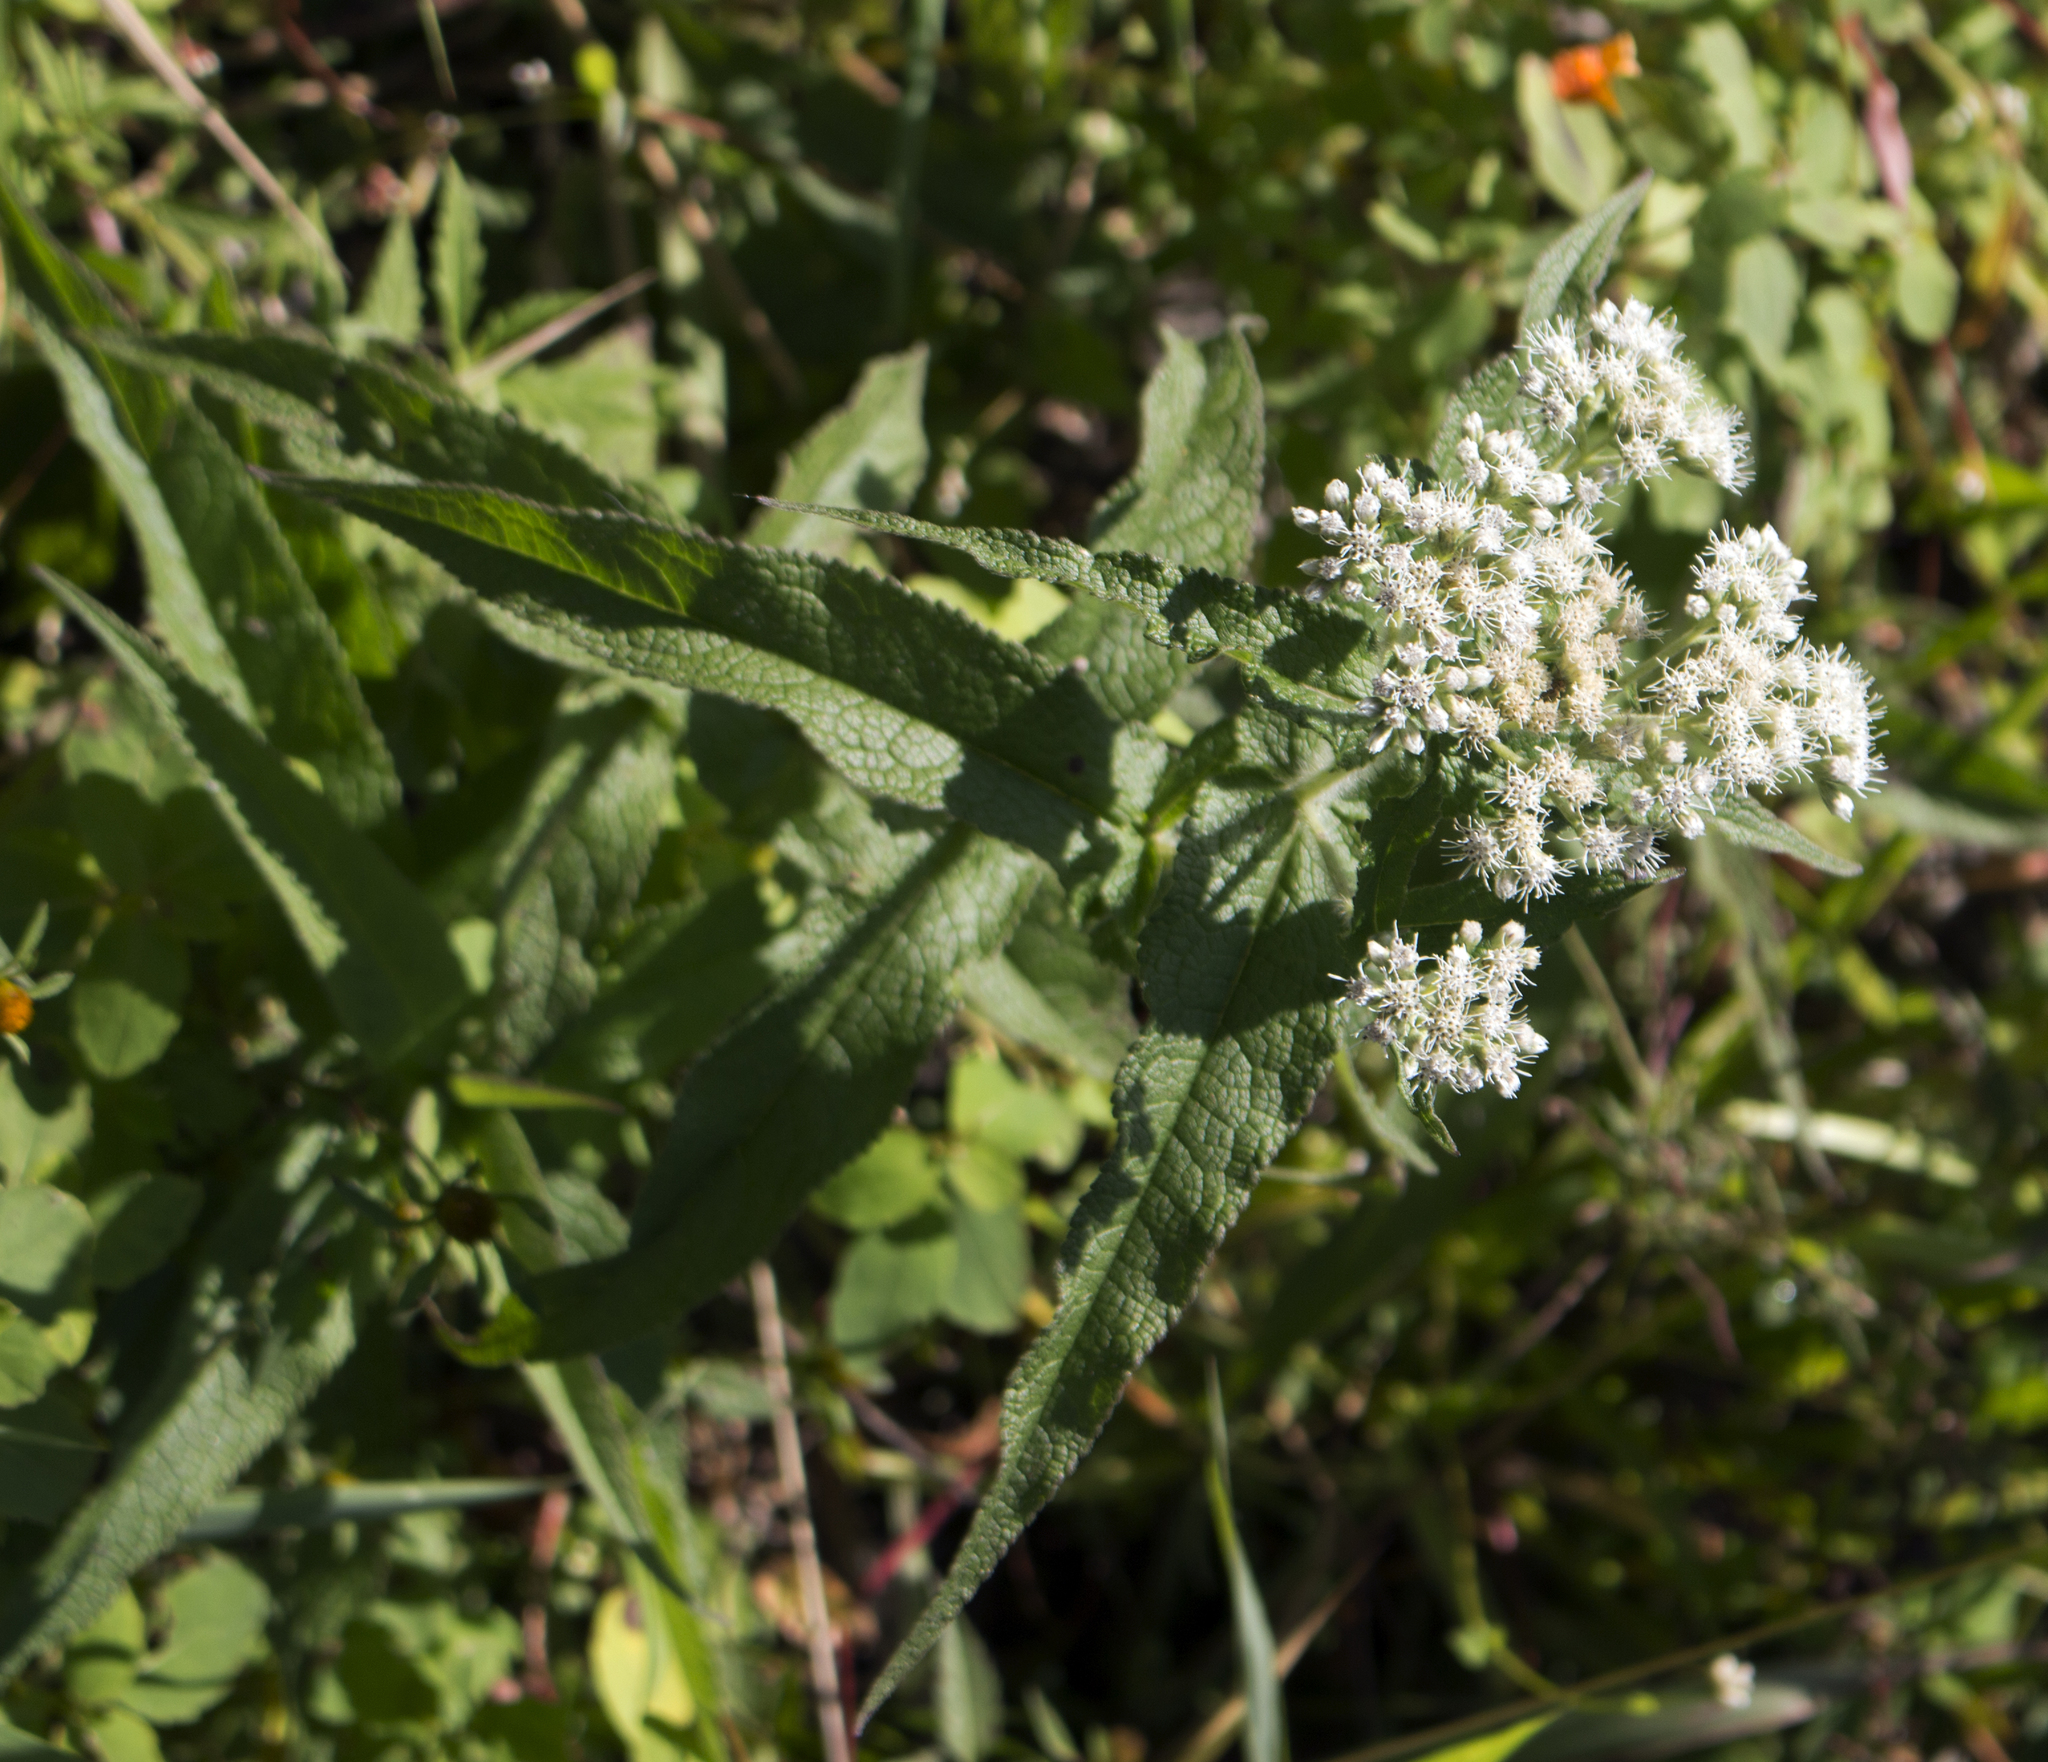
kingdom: Plantae
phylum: Tracheophyta
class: Magnoliopsida
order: Asterales
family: Asteraceae
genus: Eupatorium
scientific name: Eupatorium perfoliatum
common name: Boneset
